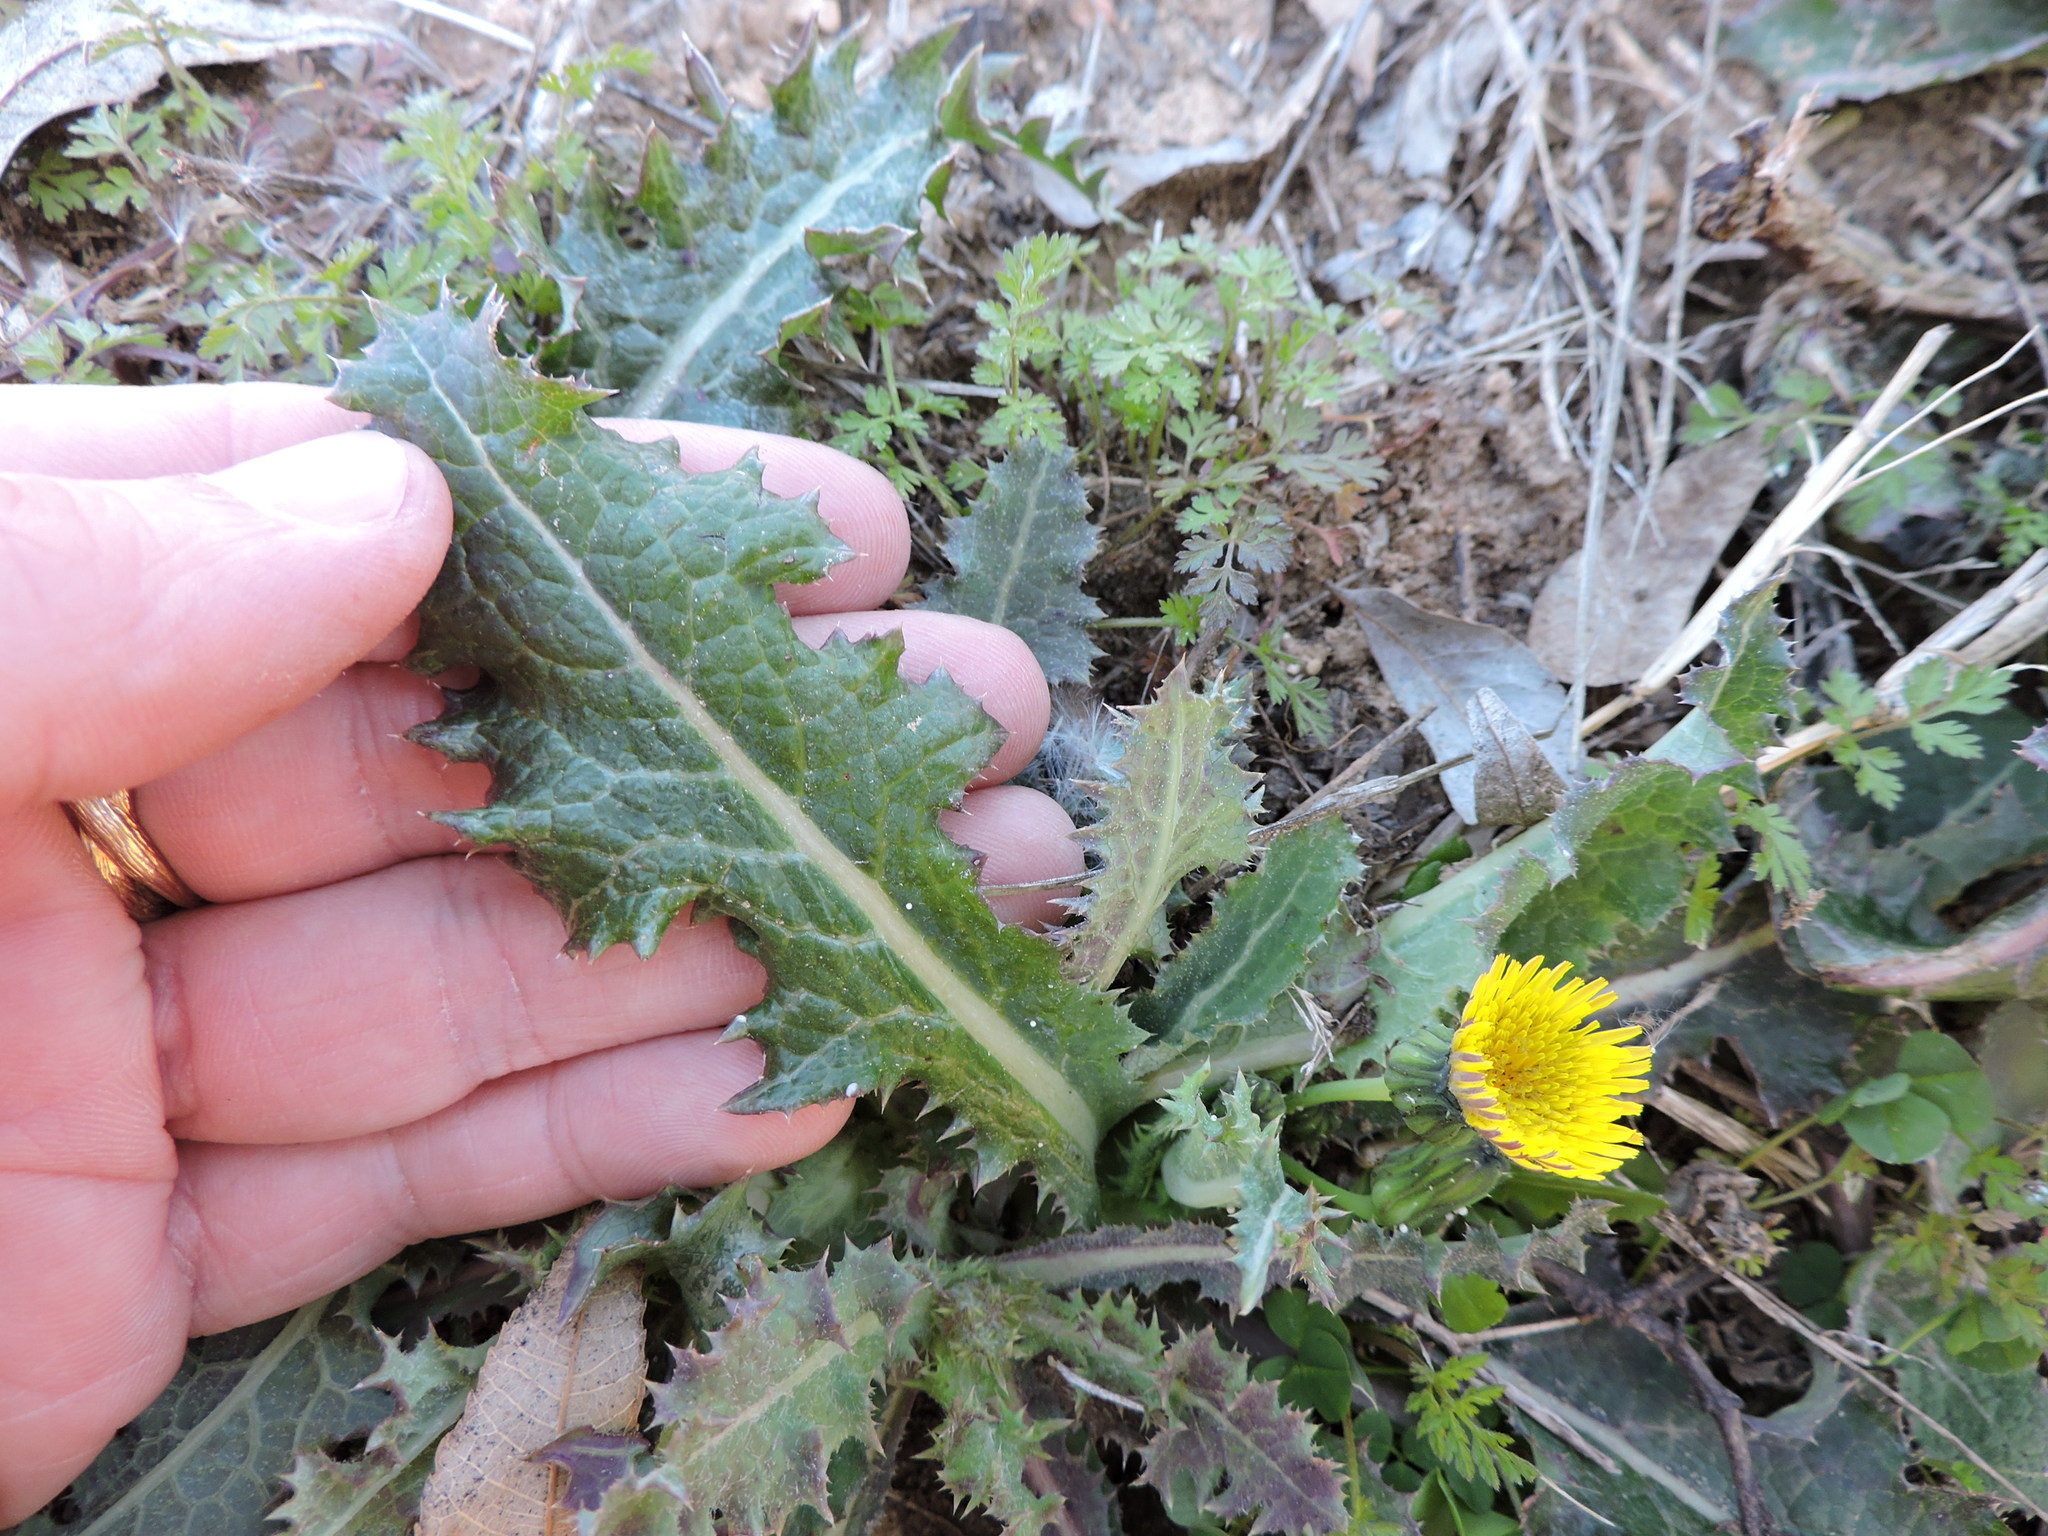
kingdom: Plantae
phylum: Tracheophyta
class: Magnoliopsida
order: Asterales
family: Asteraceae
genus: Sonchus
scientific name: Sonchus asper
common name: Prickly sow-thistle
